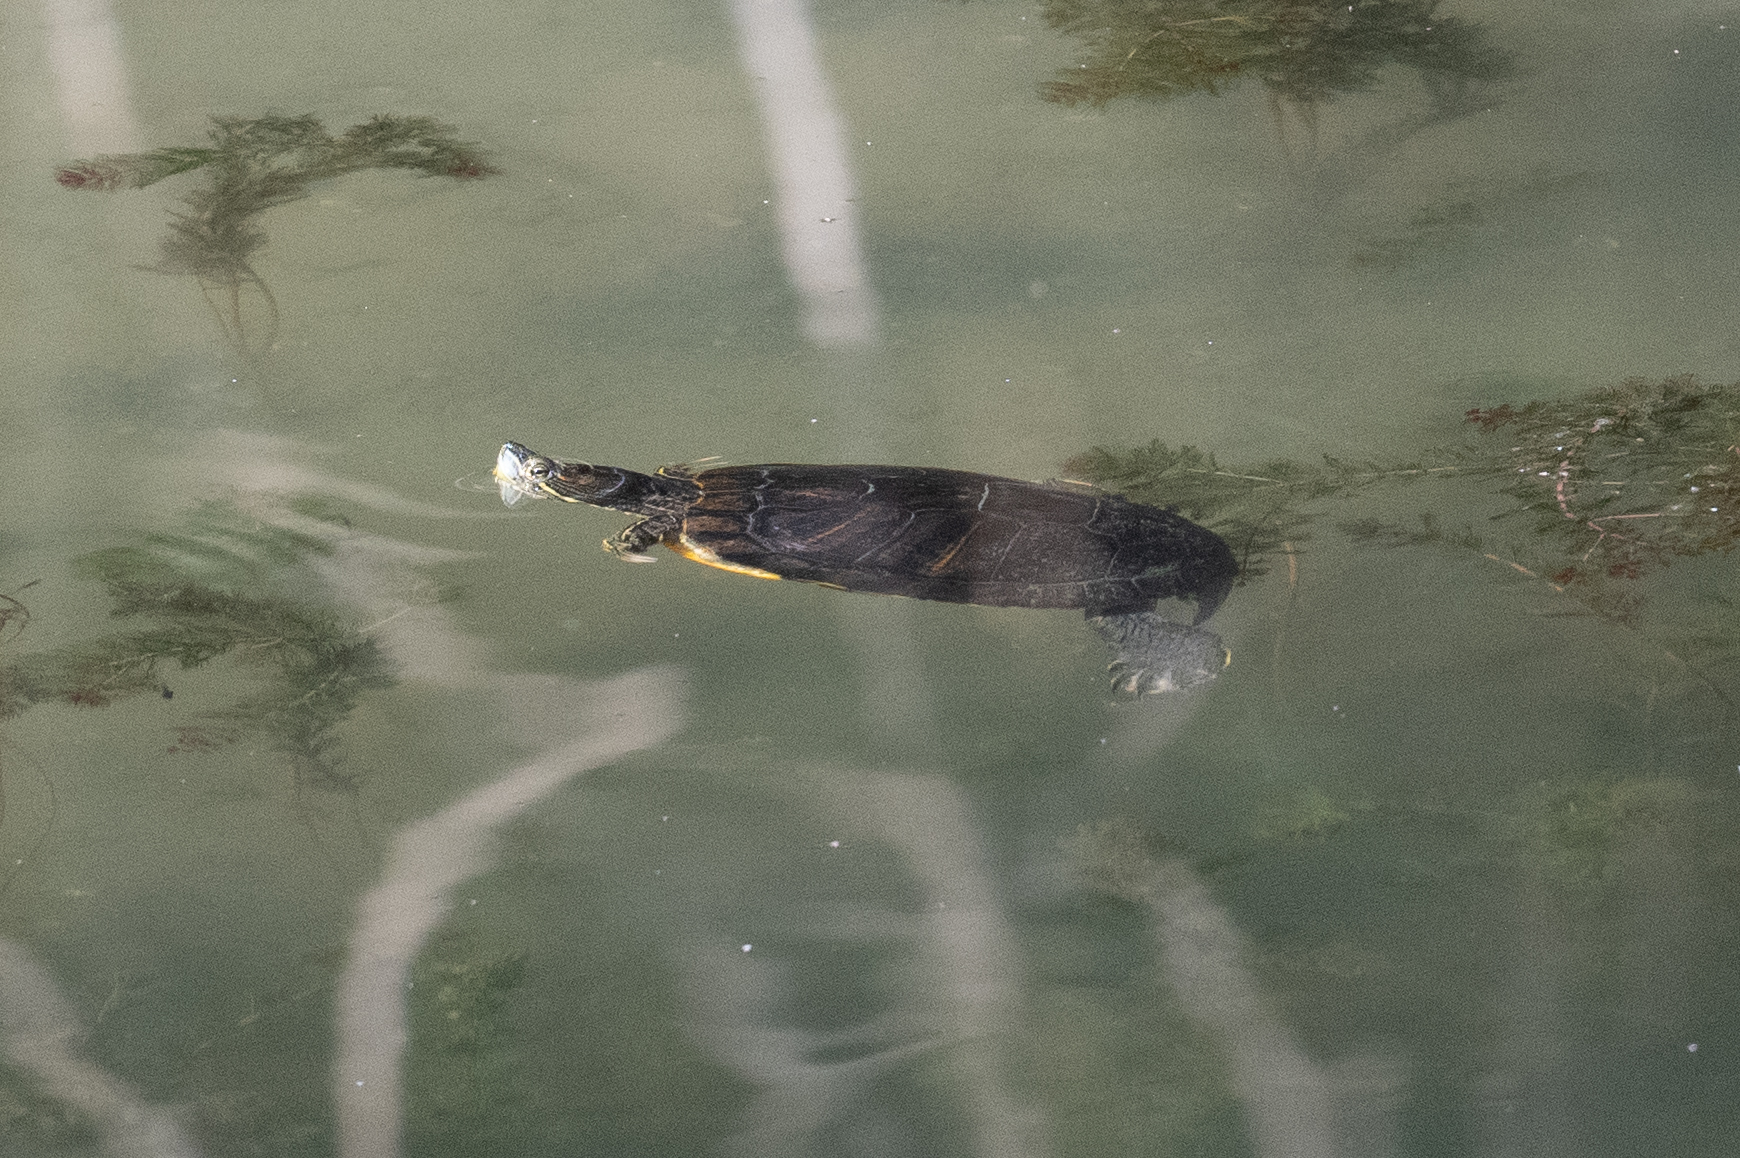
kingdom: Animalia
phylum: Chordata
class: Testudines
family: Emydidae
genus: Trachemys
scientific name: Trachemys scripta
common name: Slider
